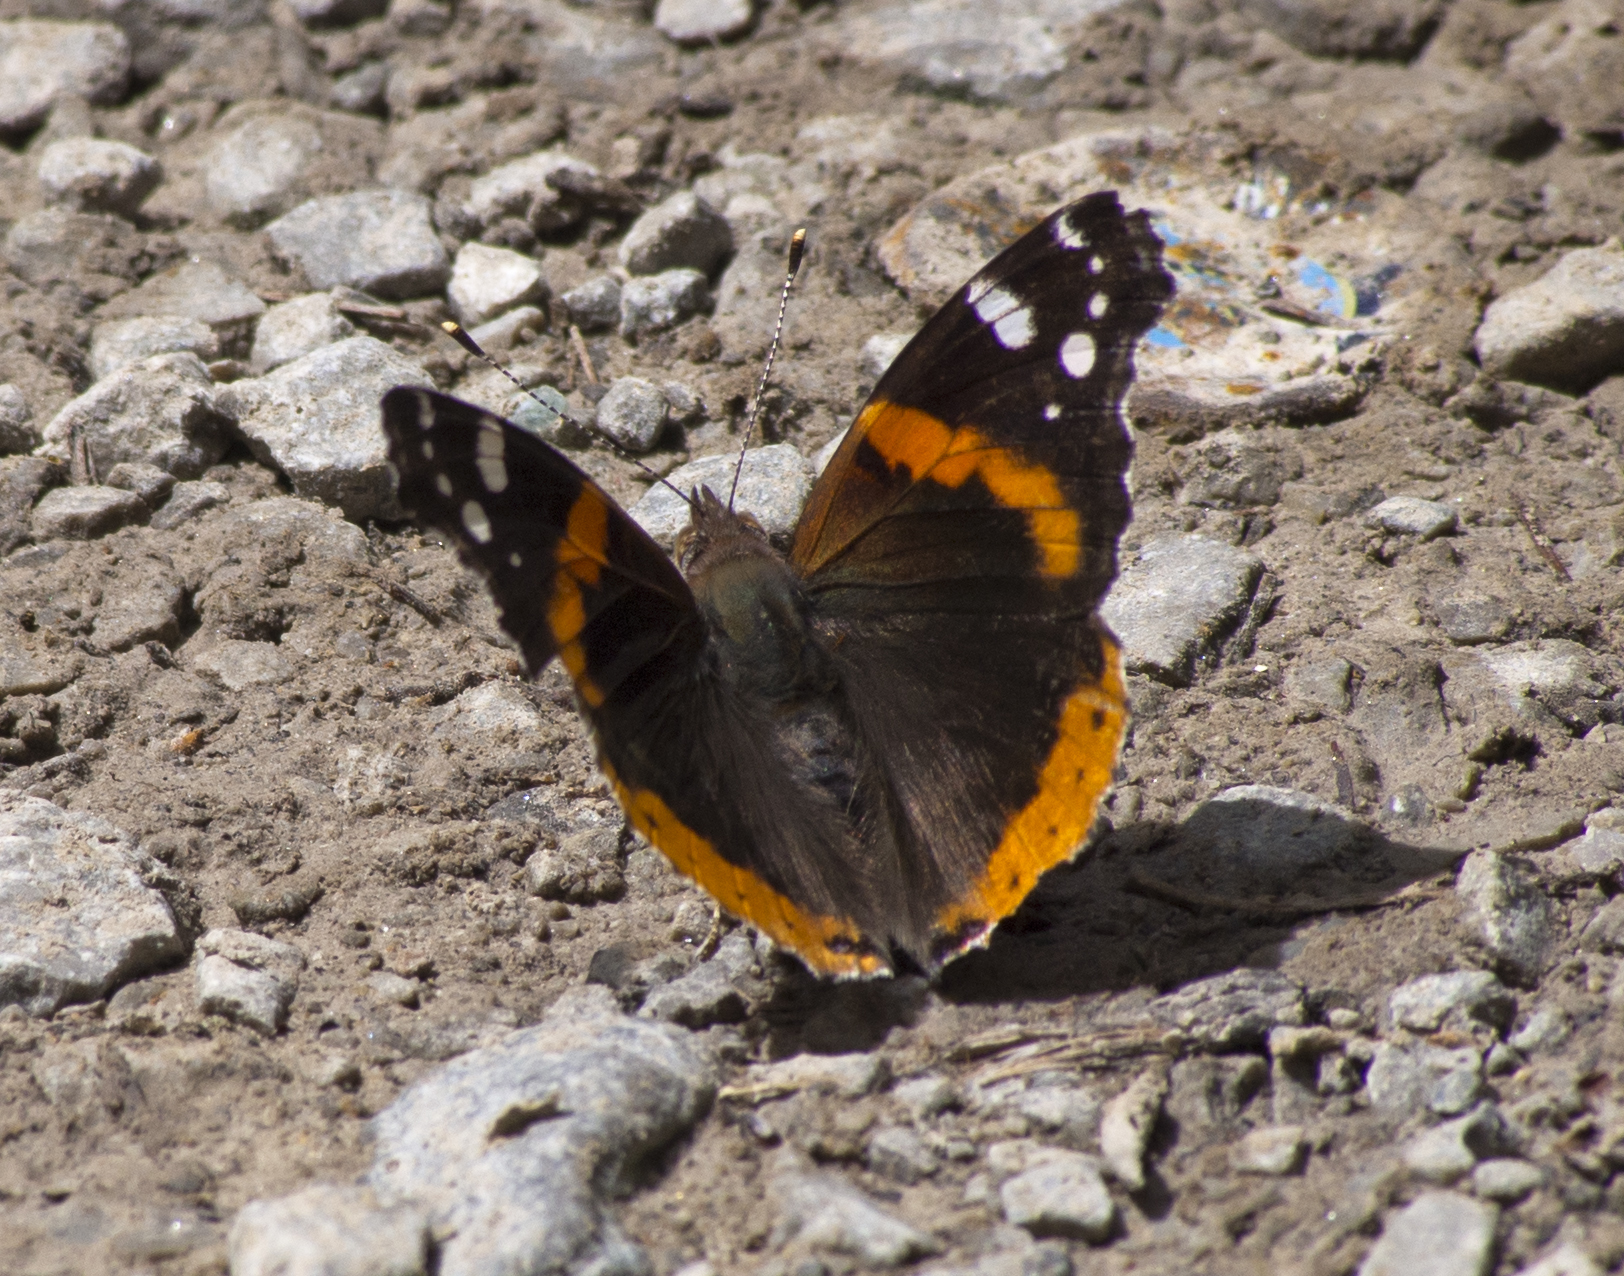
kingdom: Animalia
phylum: Arthropoda
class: Insecta
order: Lepidoptera
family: Nymphalidae
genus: Vanessa
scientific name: Vanessa atalanta
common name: Red admiral
